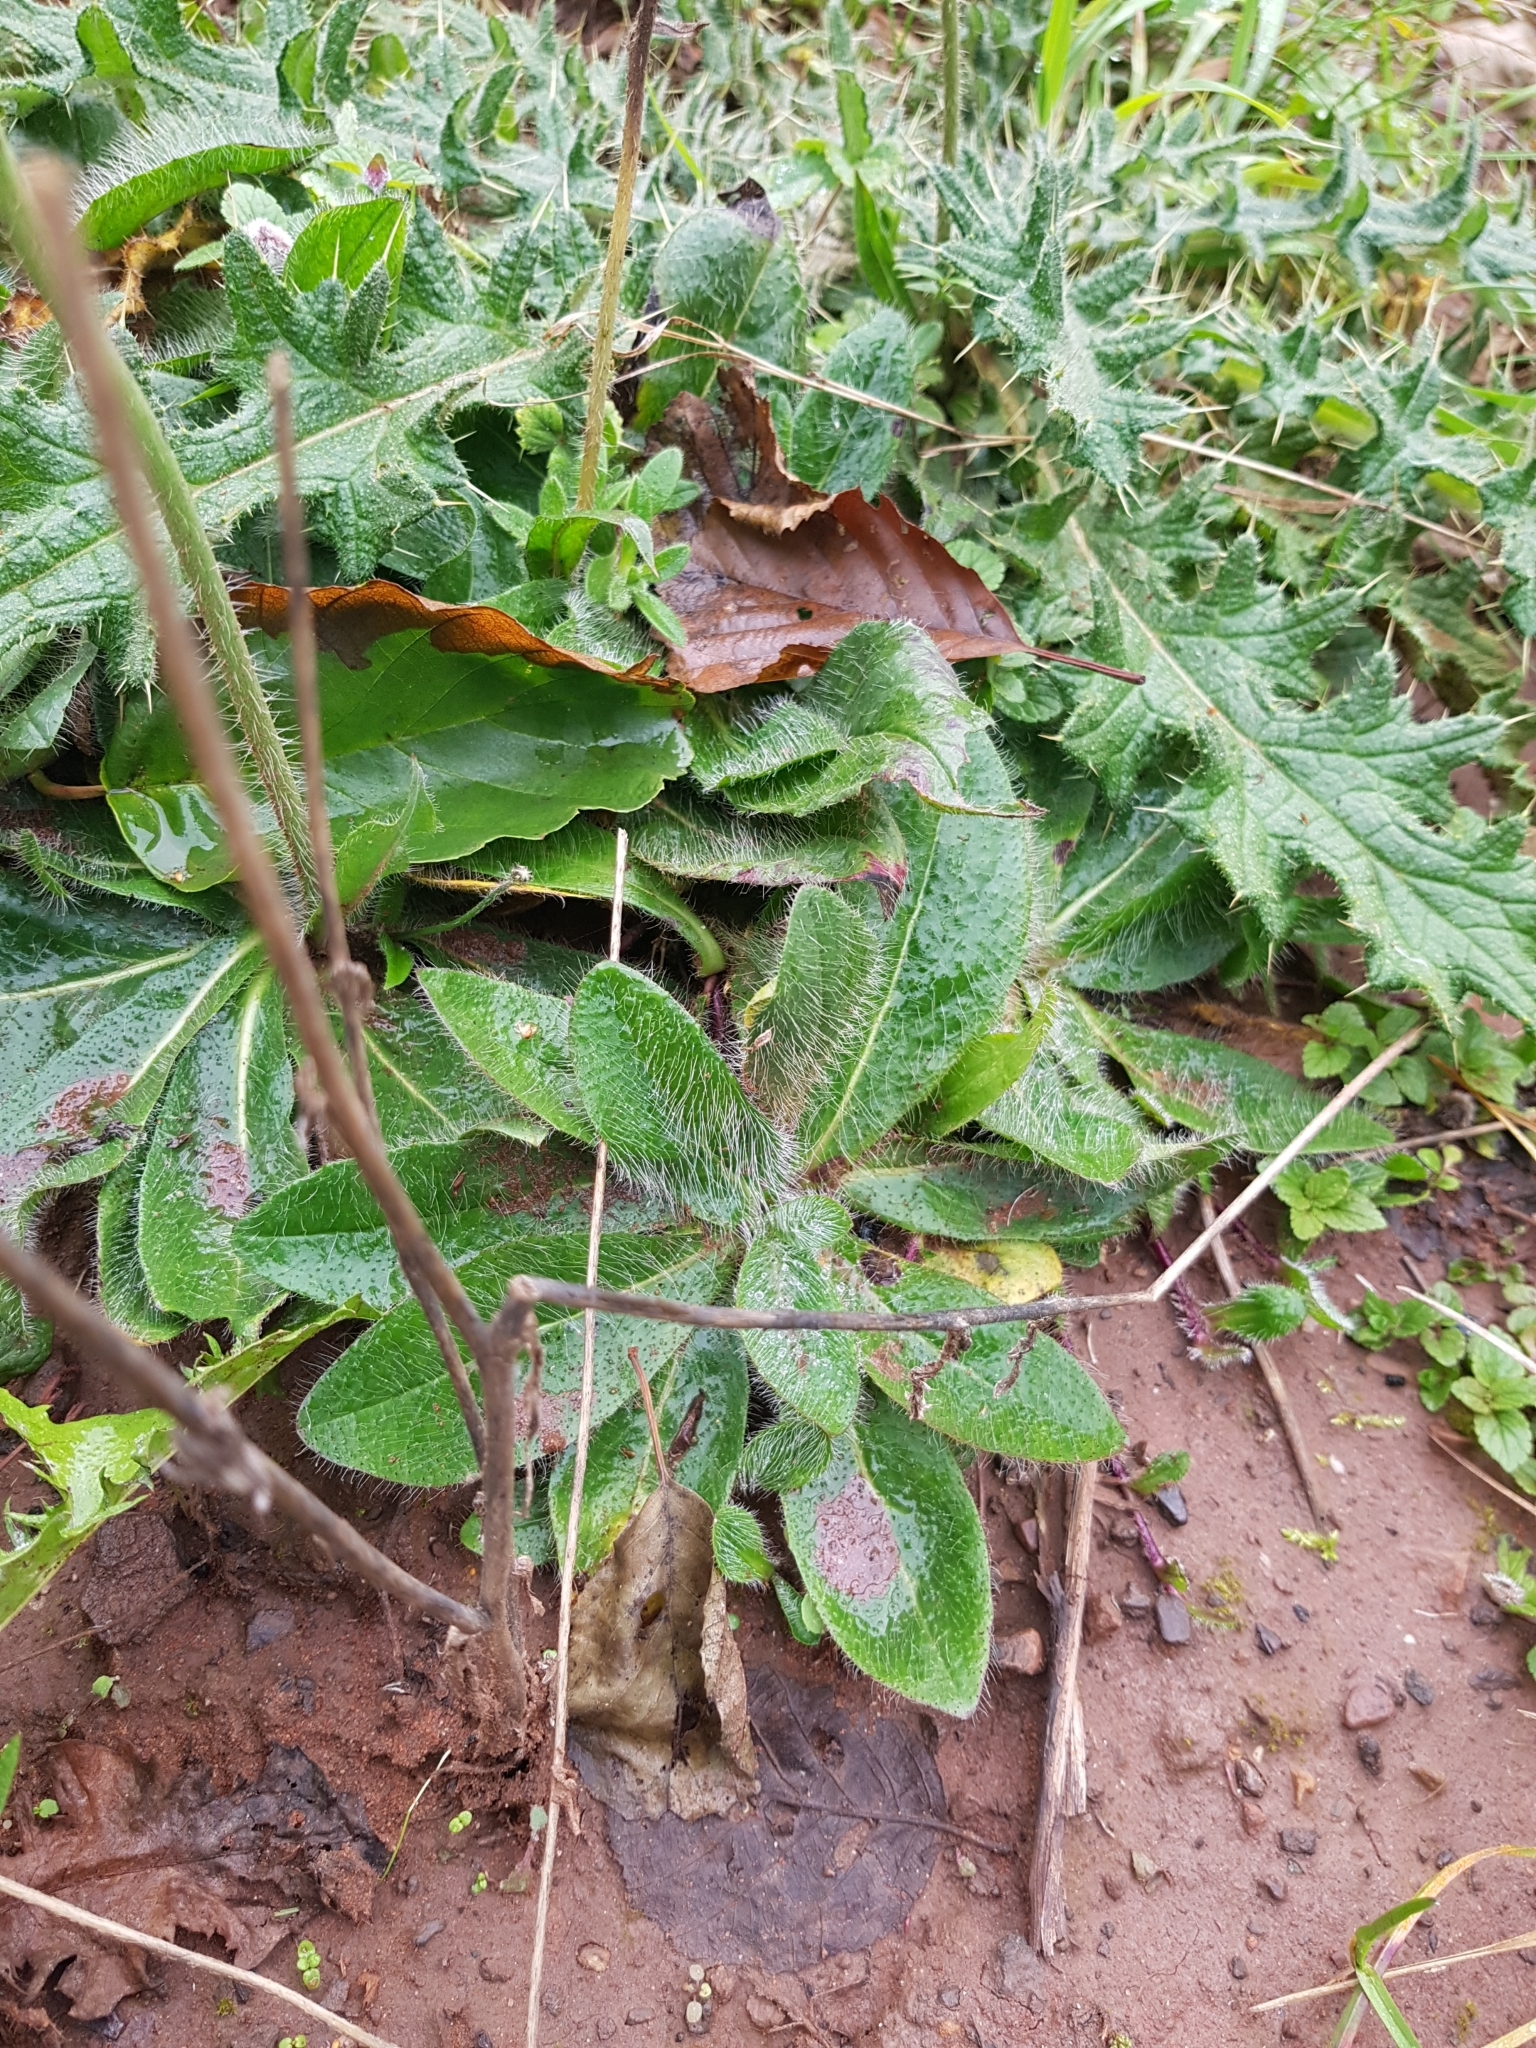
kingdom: Plantae
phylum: Tracheophyta
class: Magnoliopsida
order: Asterales
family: Asteraceae
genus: Pilosella
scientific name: Pilosella aurantiaca
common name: Fox-and-cubs
